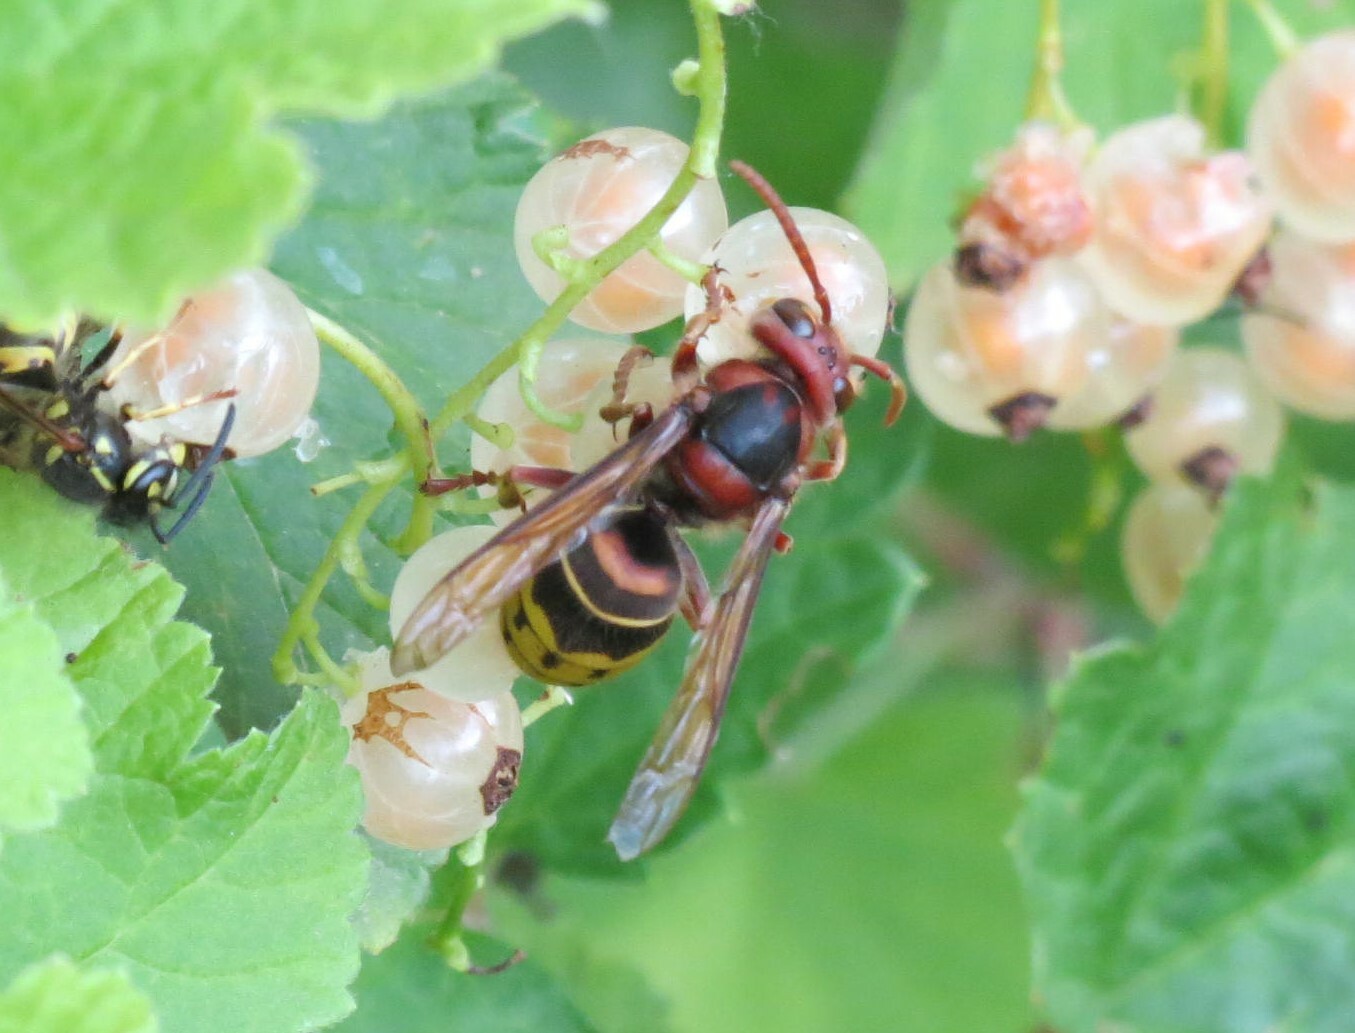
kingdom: Animalia
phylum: Arthropoda
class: Insecta
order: Hymenoptera
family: Vespidae
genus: Vespa
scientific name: Vespa crabro
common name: Hornet
